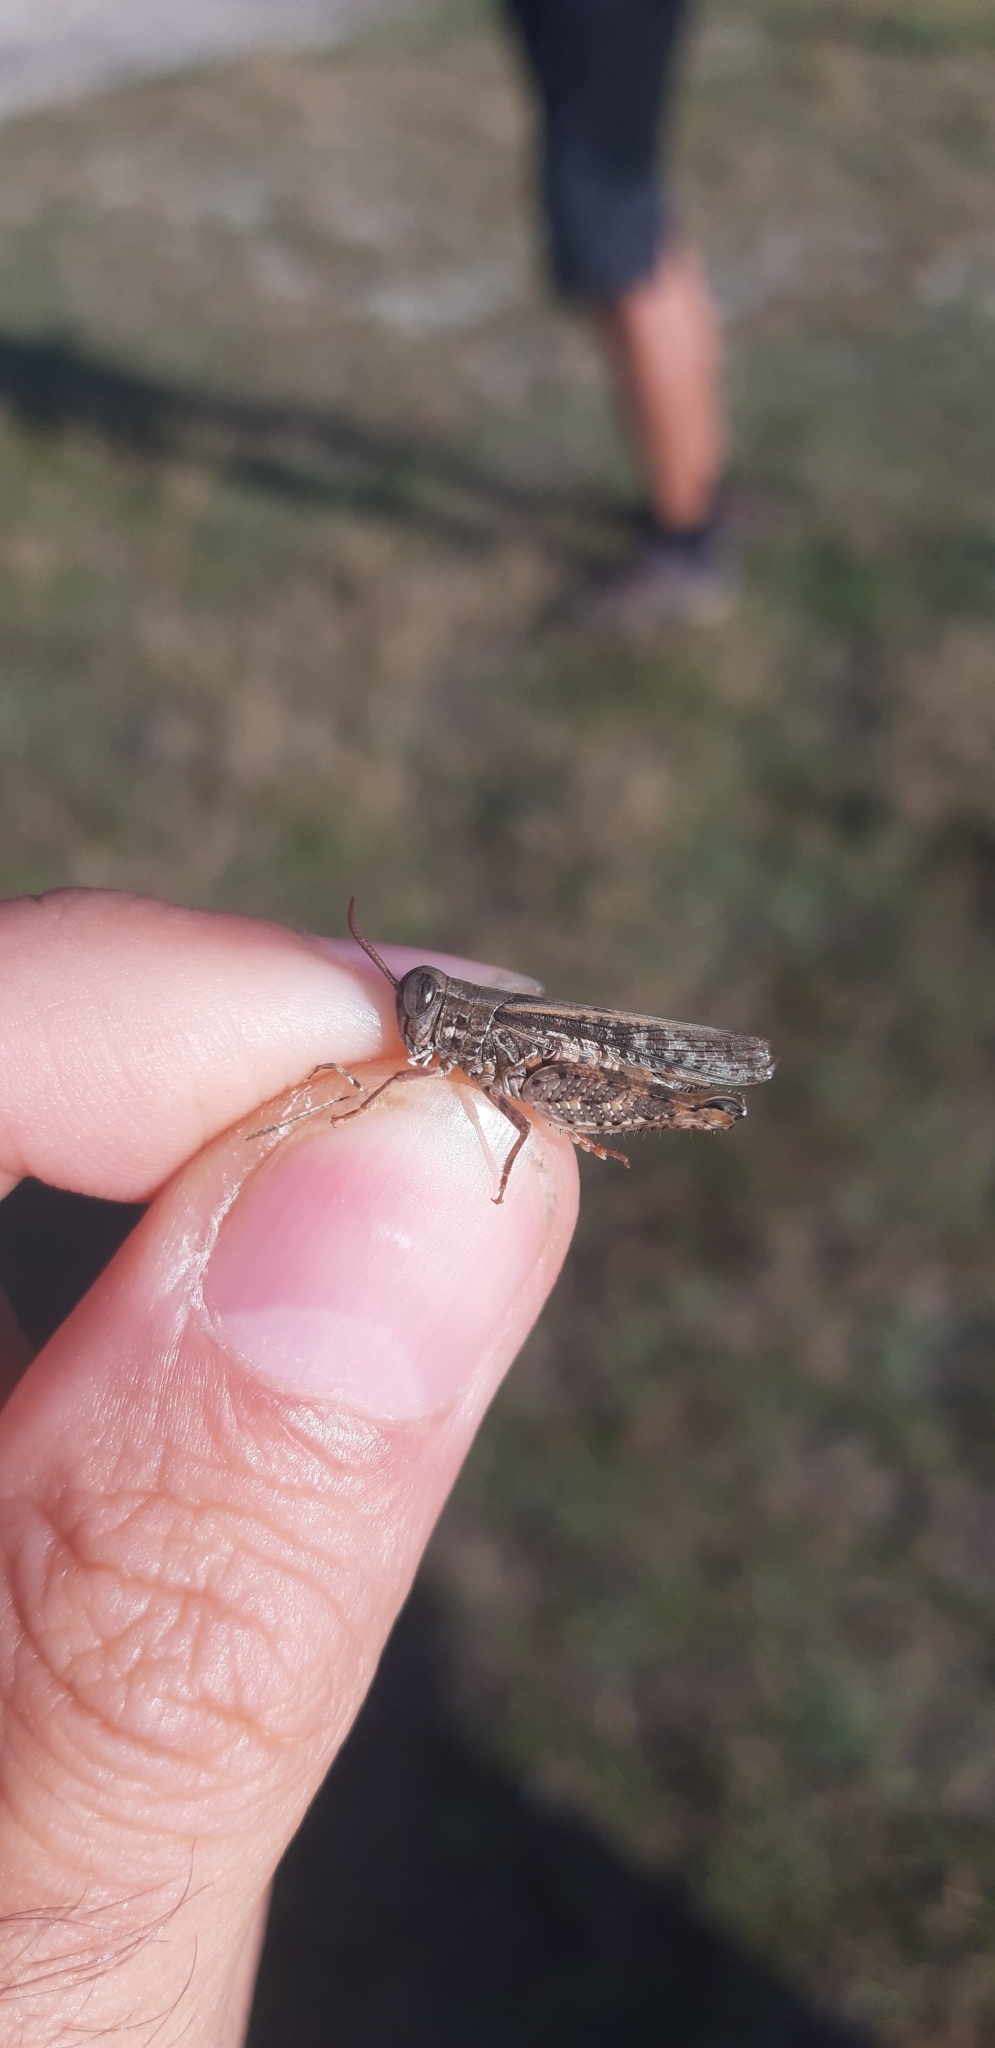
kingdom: Animalia
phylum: Arthropoda
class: Insecta
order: Orthoptera
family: Acrididae
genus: Calliptamus
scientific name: Calliptamus italicus
